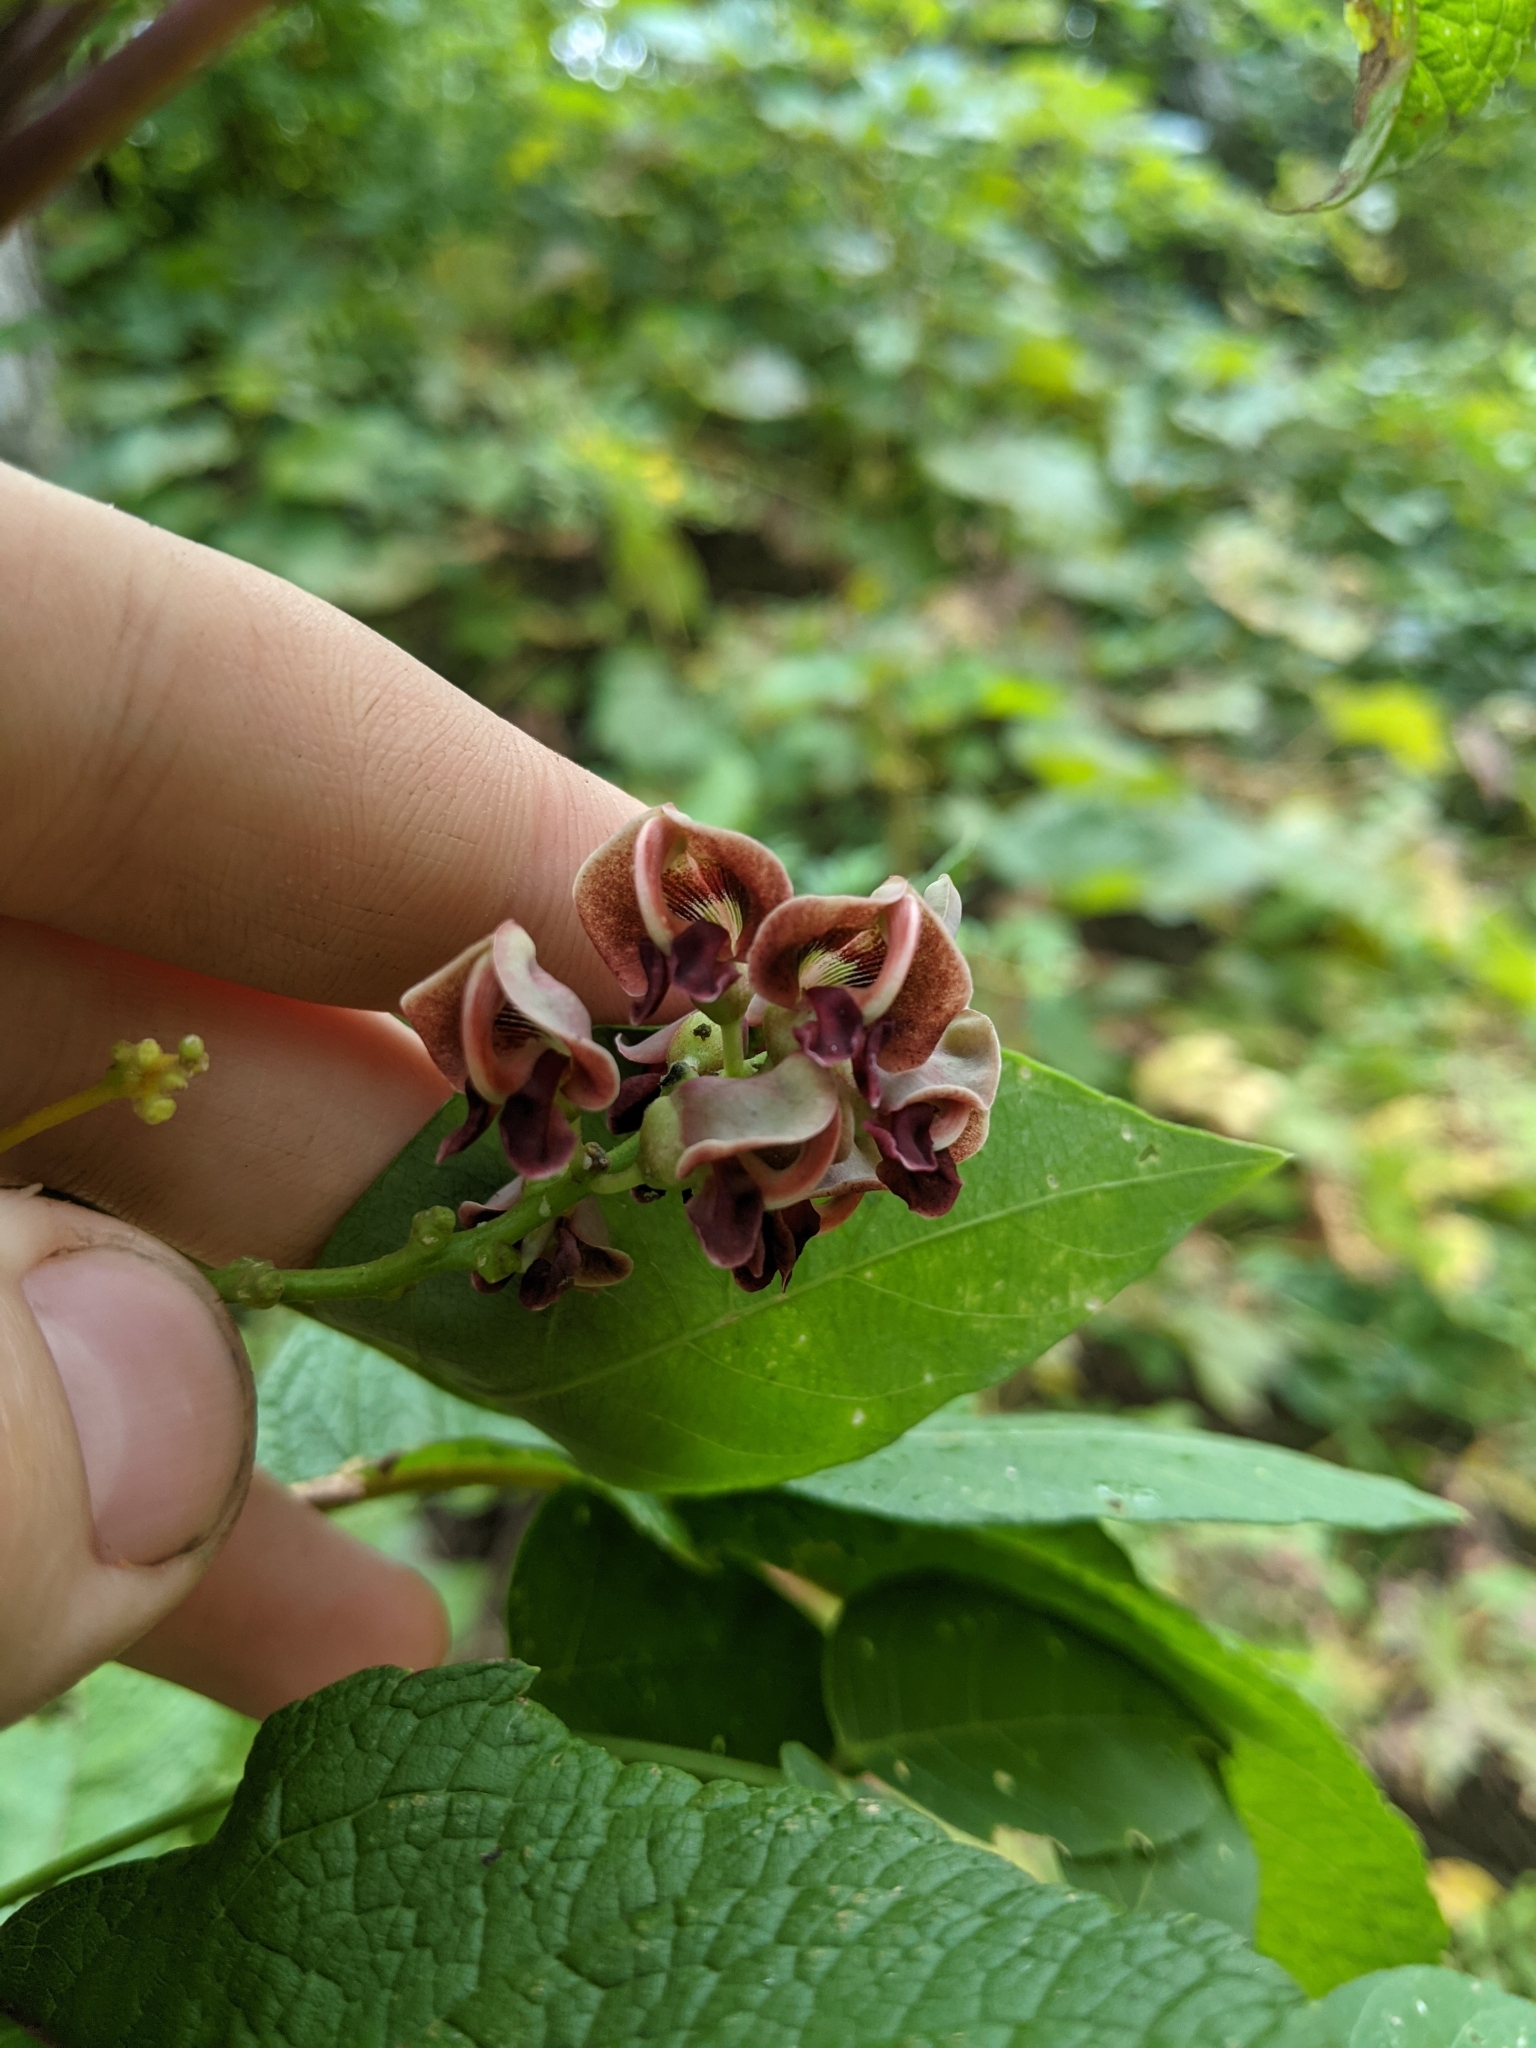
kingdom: Plantae
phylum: Tracheophyta
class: Magnoliopsida
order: Fabales
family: Fabaceae
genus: Apios
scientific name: Apios americana
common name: American potato-bean
